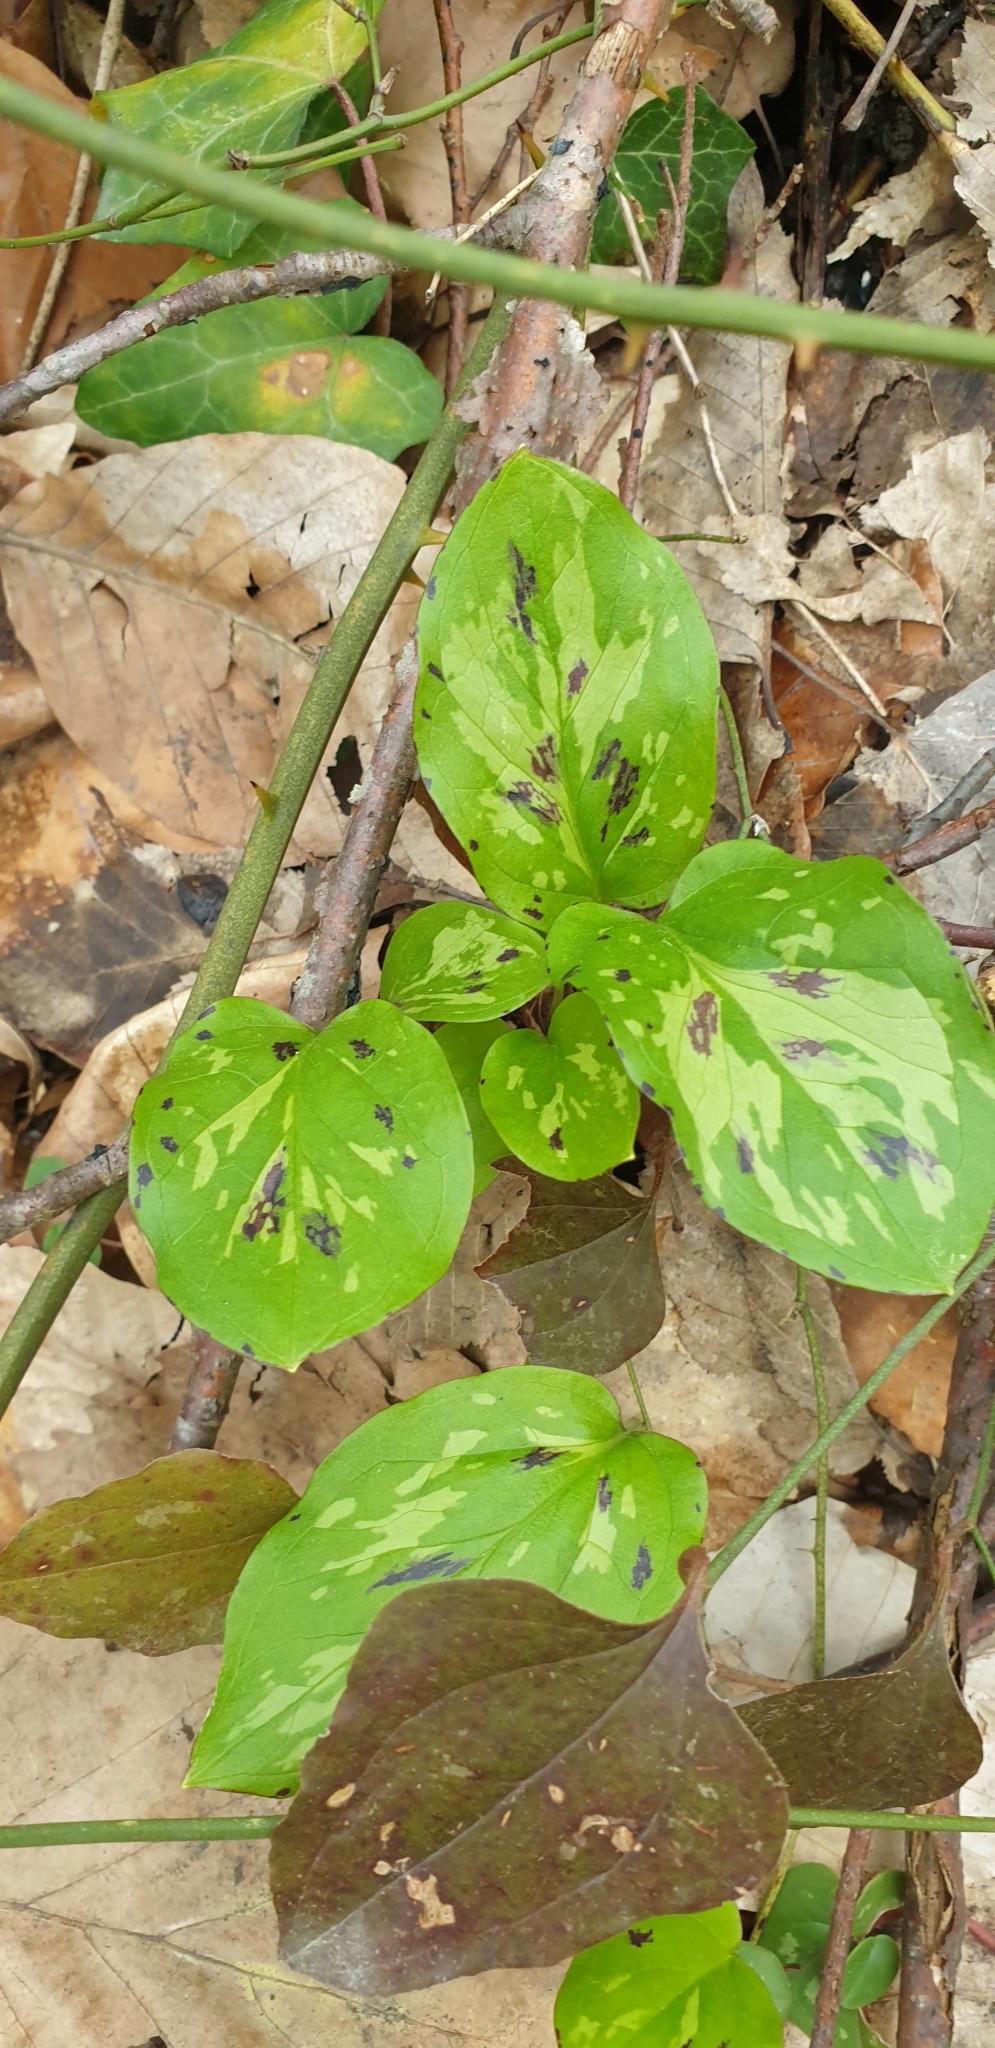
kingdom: Plantae
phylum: Tracheophyta
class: Liliopsida
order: Alismatales
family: Araceae
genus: Arum
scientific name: Arum maculatum
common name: Lords-and-ladies
